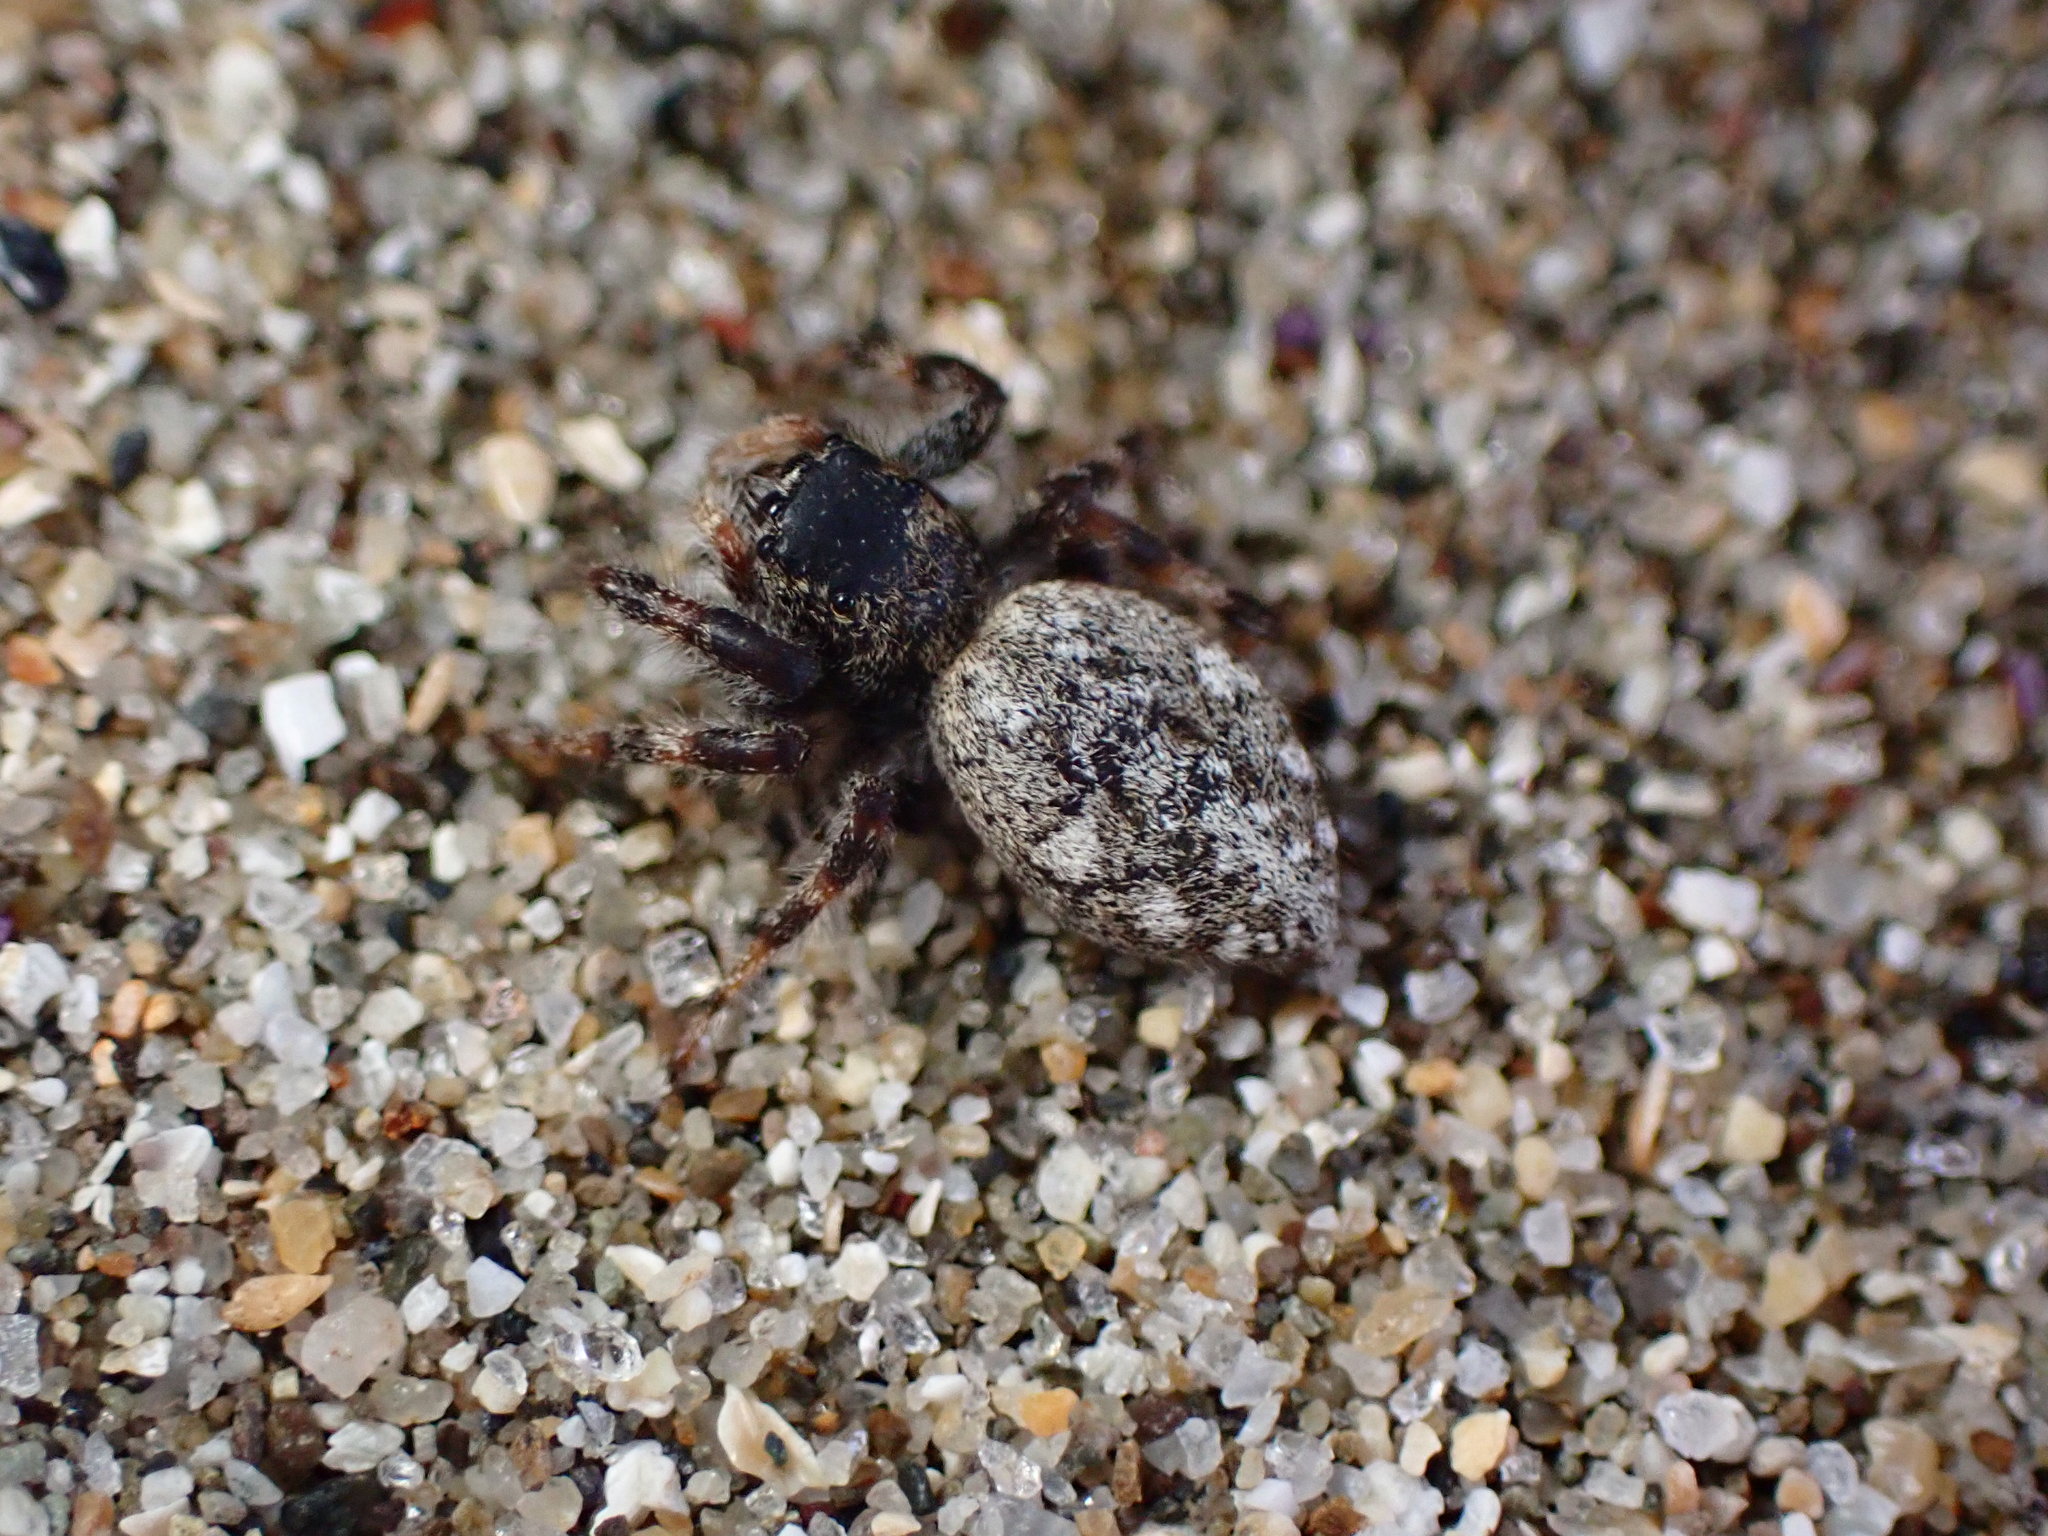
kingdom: Animalia
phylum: Arthropoda
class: Arachnida
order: Araneae
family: Salticidae
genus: Terralonus
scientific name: Terralonus californicus
